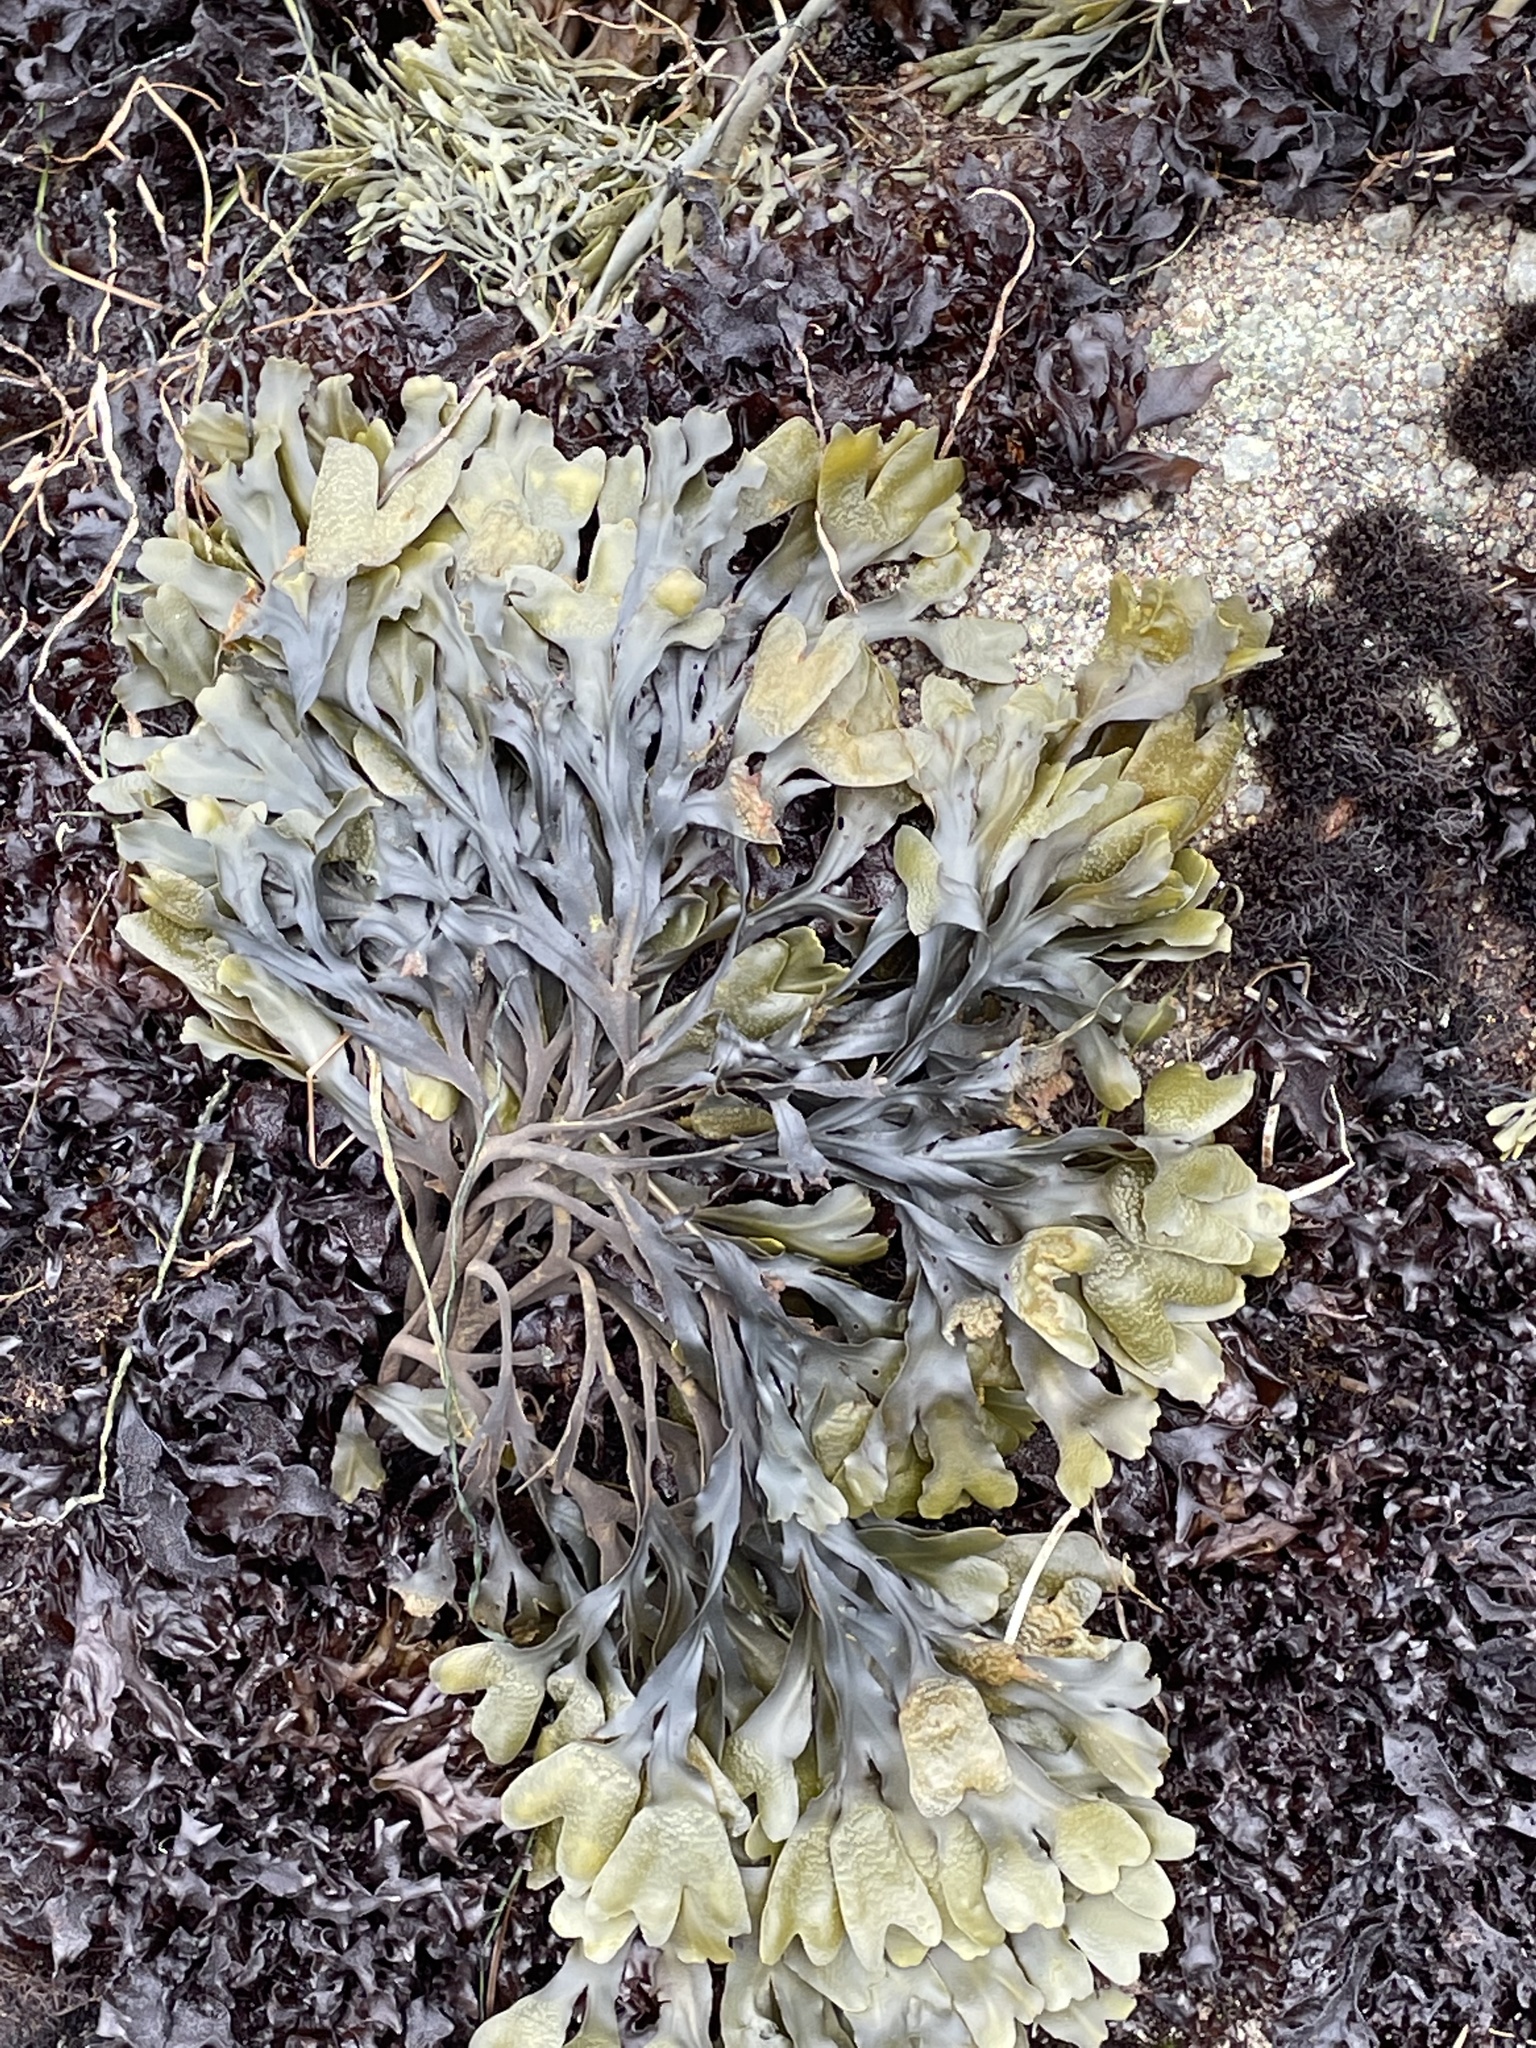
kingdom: Chromista
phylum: Ochrophyta
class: Phaeophyceae
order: Fucales
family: Fucaceae
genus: Fucus
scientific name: Fucus distichus
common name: Rockweed
